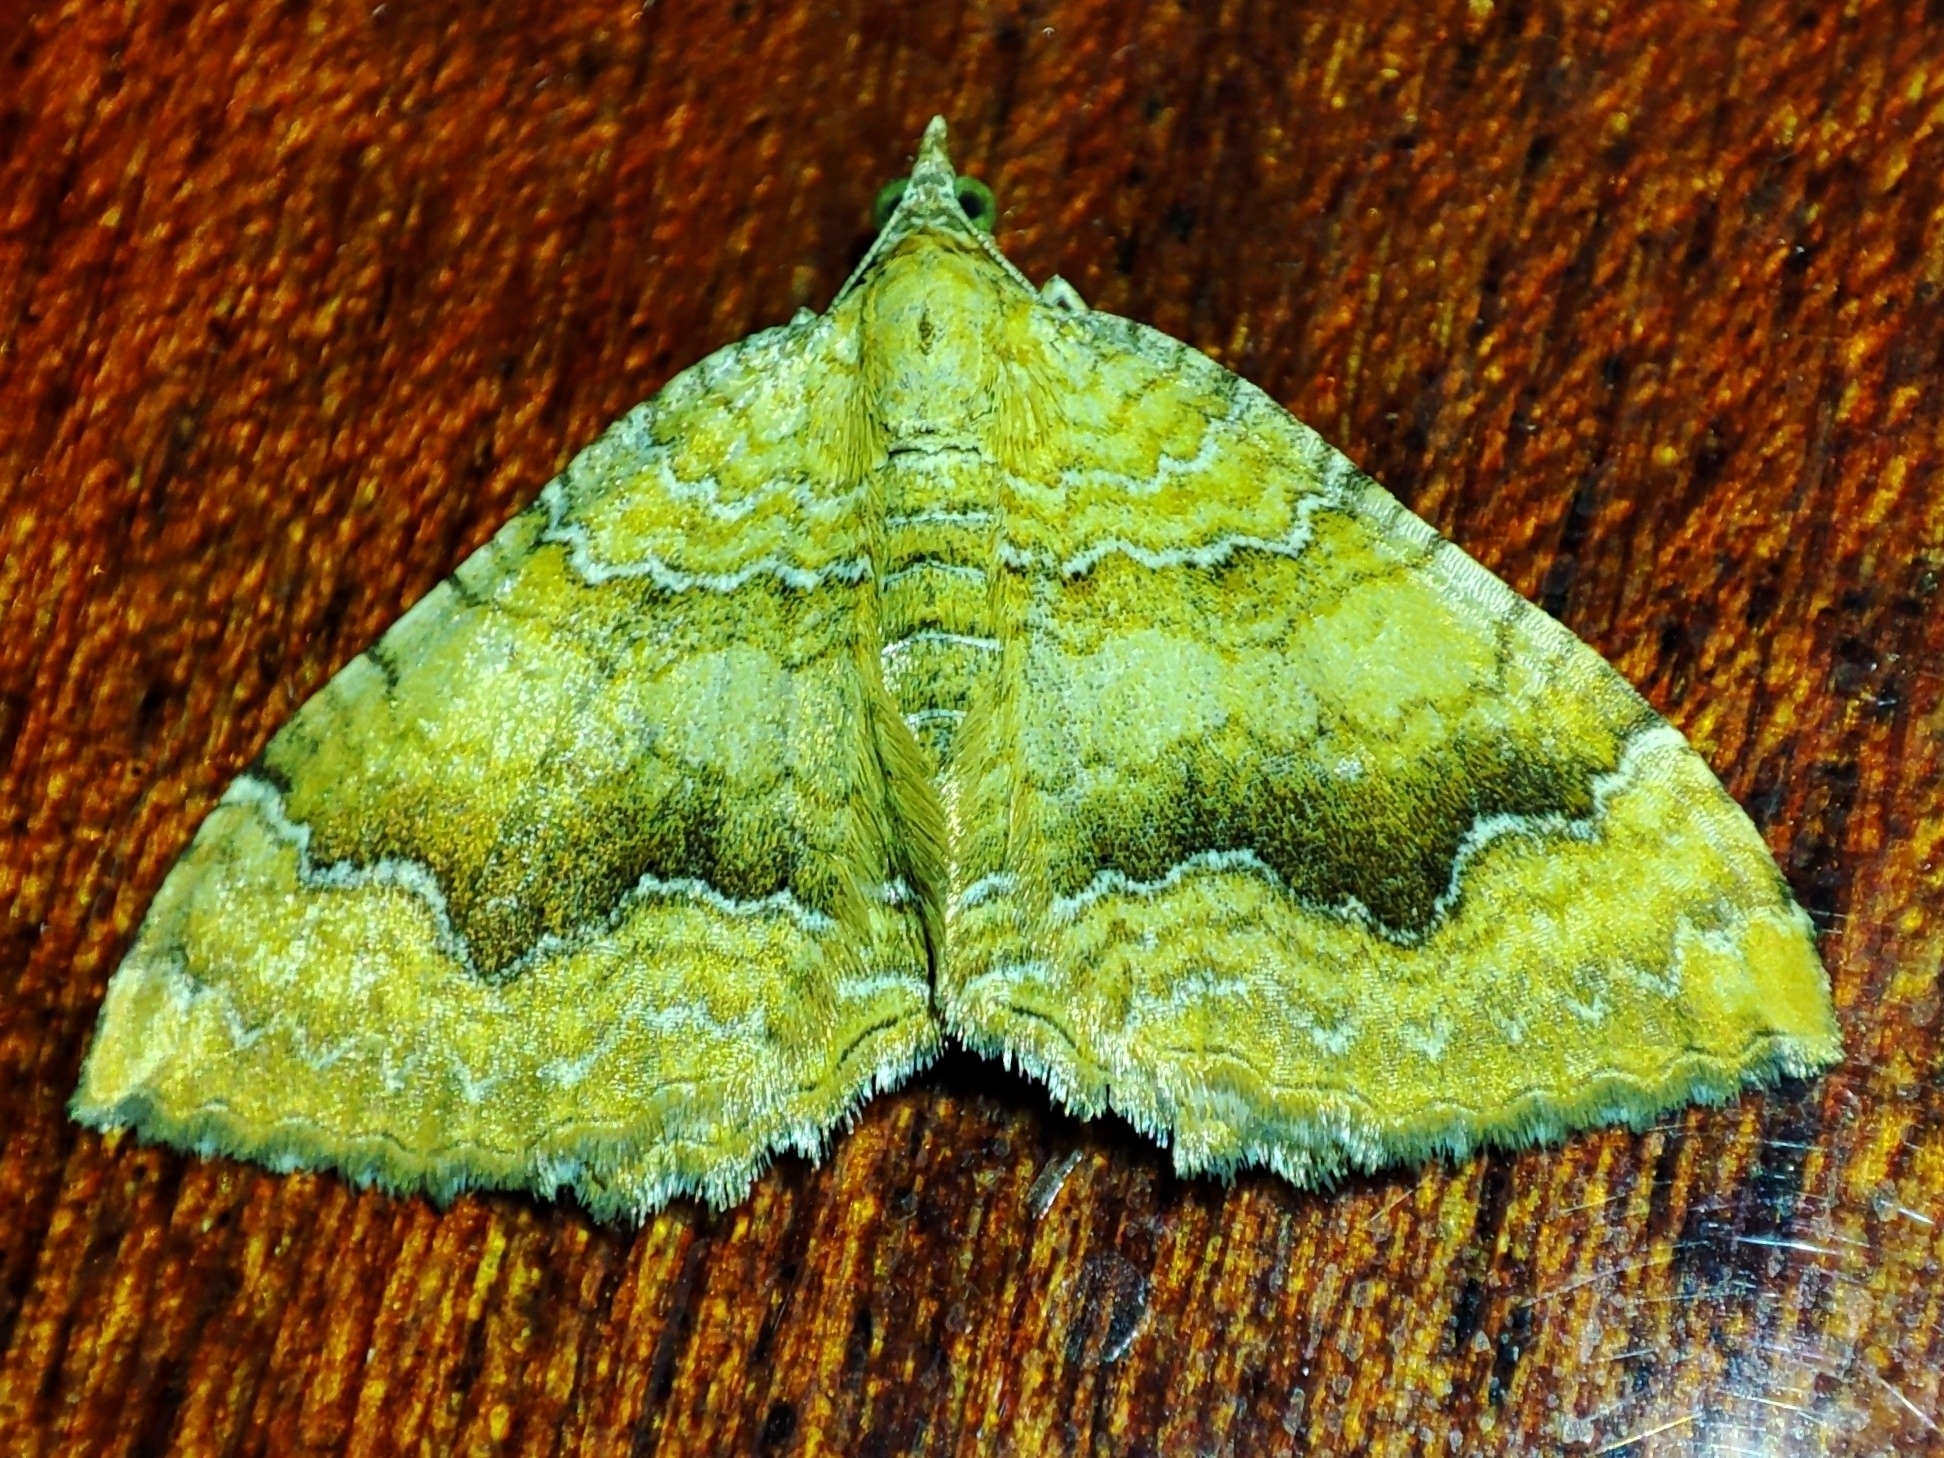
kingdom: Animalia
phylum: Arthropoda
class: Insecta
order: Lepidoptera
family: Geometridae
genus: Camptogramma
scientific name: Camptogramma bilineata
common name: Yellow shell
